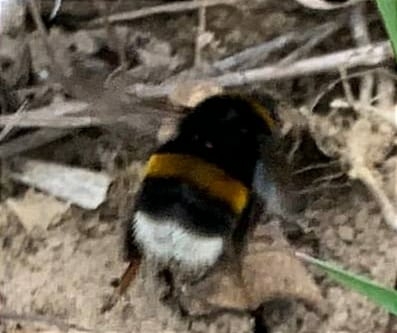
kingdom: Animalia
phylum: Arthropoda
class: Insecta
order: Hymenoptera
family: Apidae
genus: Bombus
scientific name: Bombus
